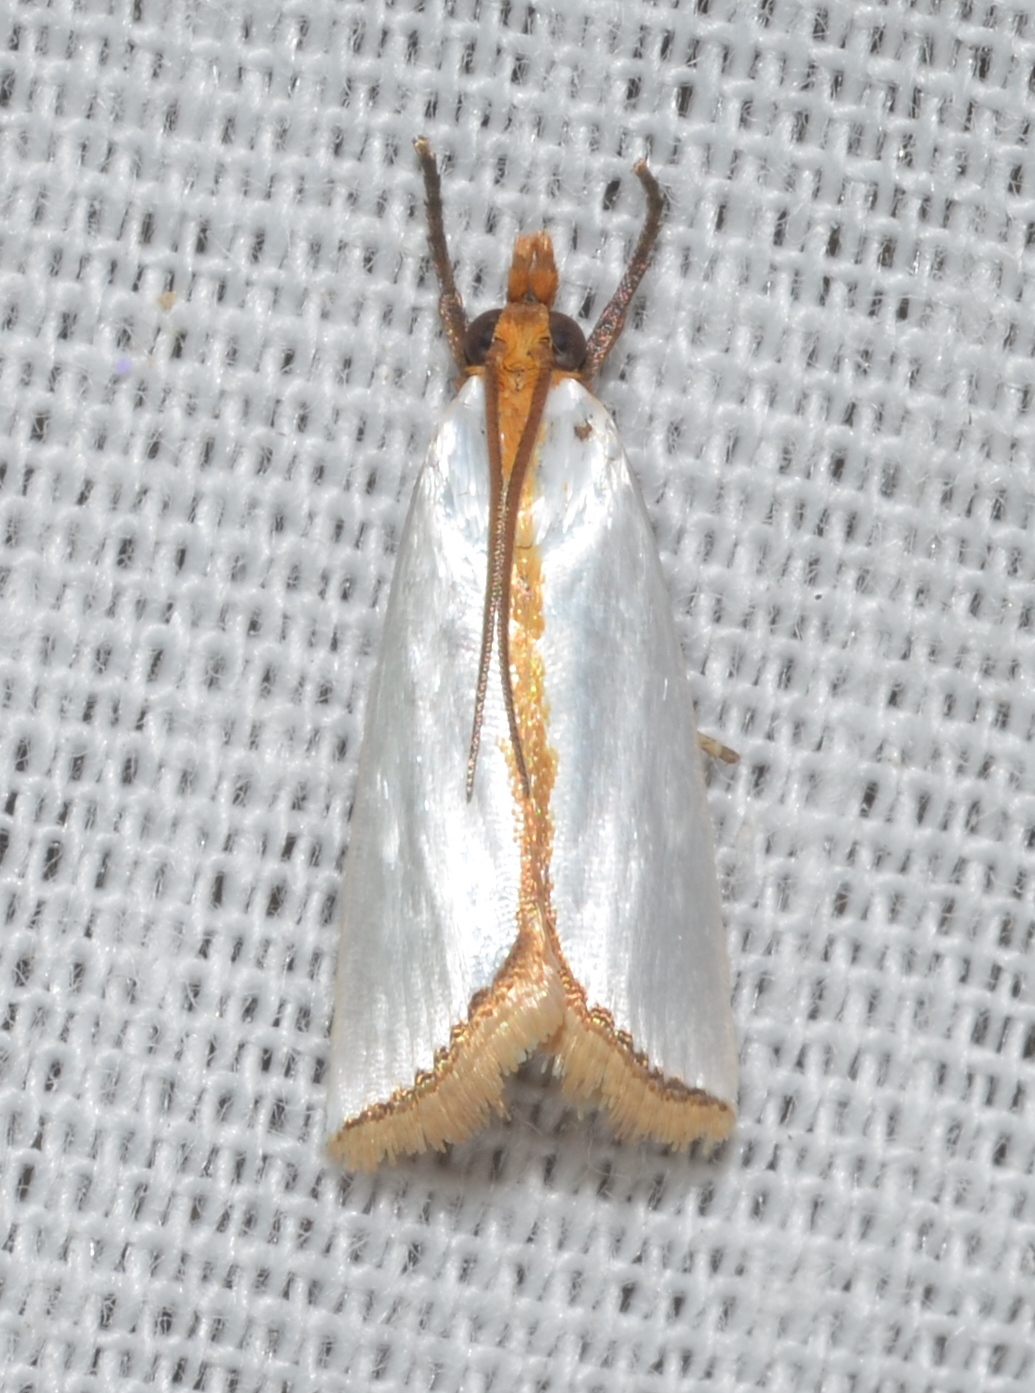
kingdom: Animalia
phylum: Arthropoda
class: Insecta
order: Lepidoptera
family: Crambidae
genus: Argyria
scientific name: Argyria
